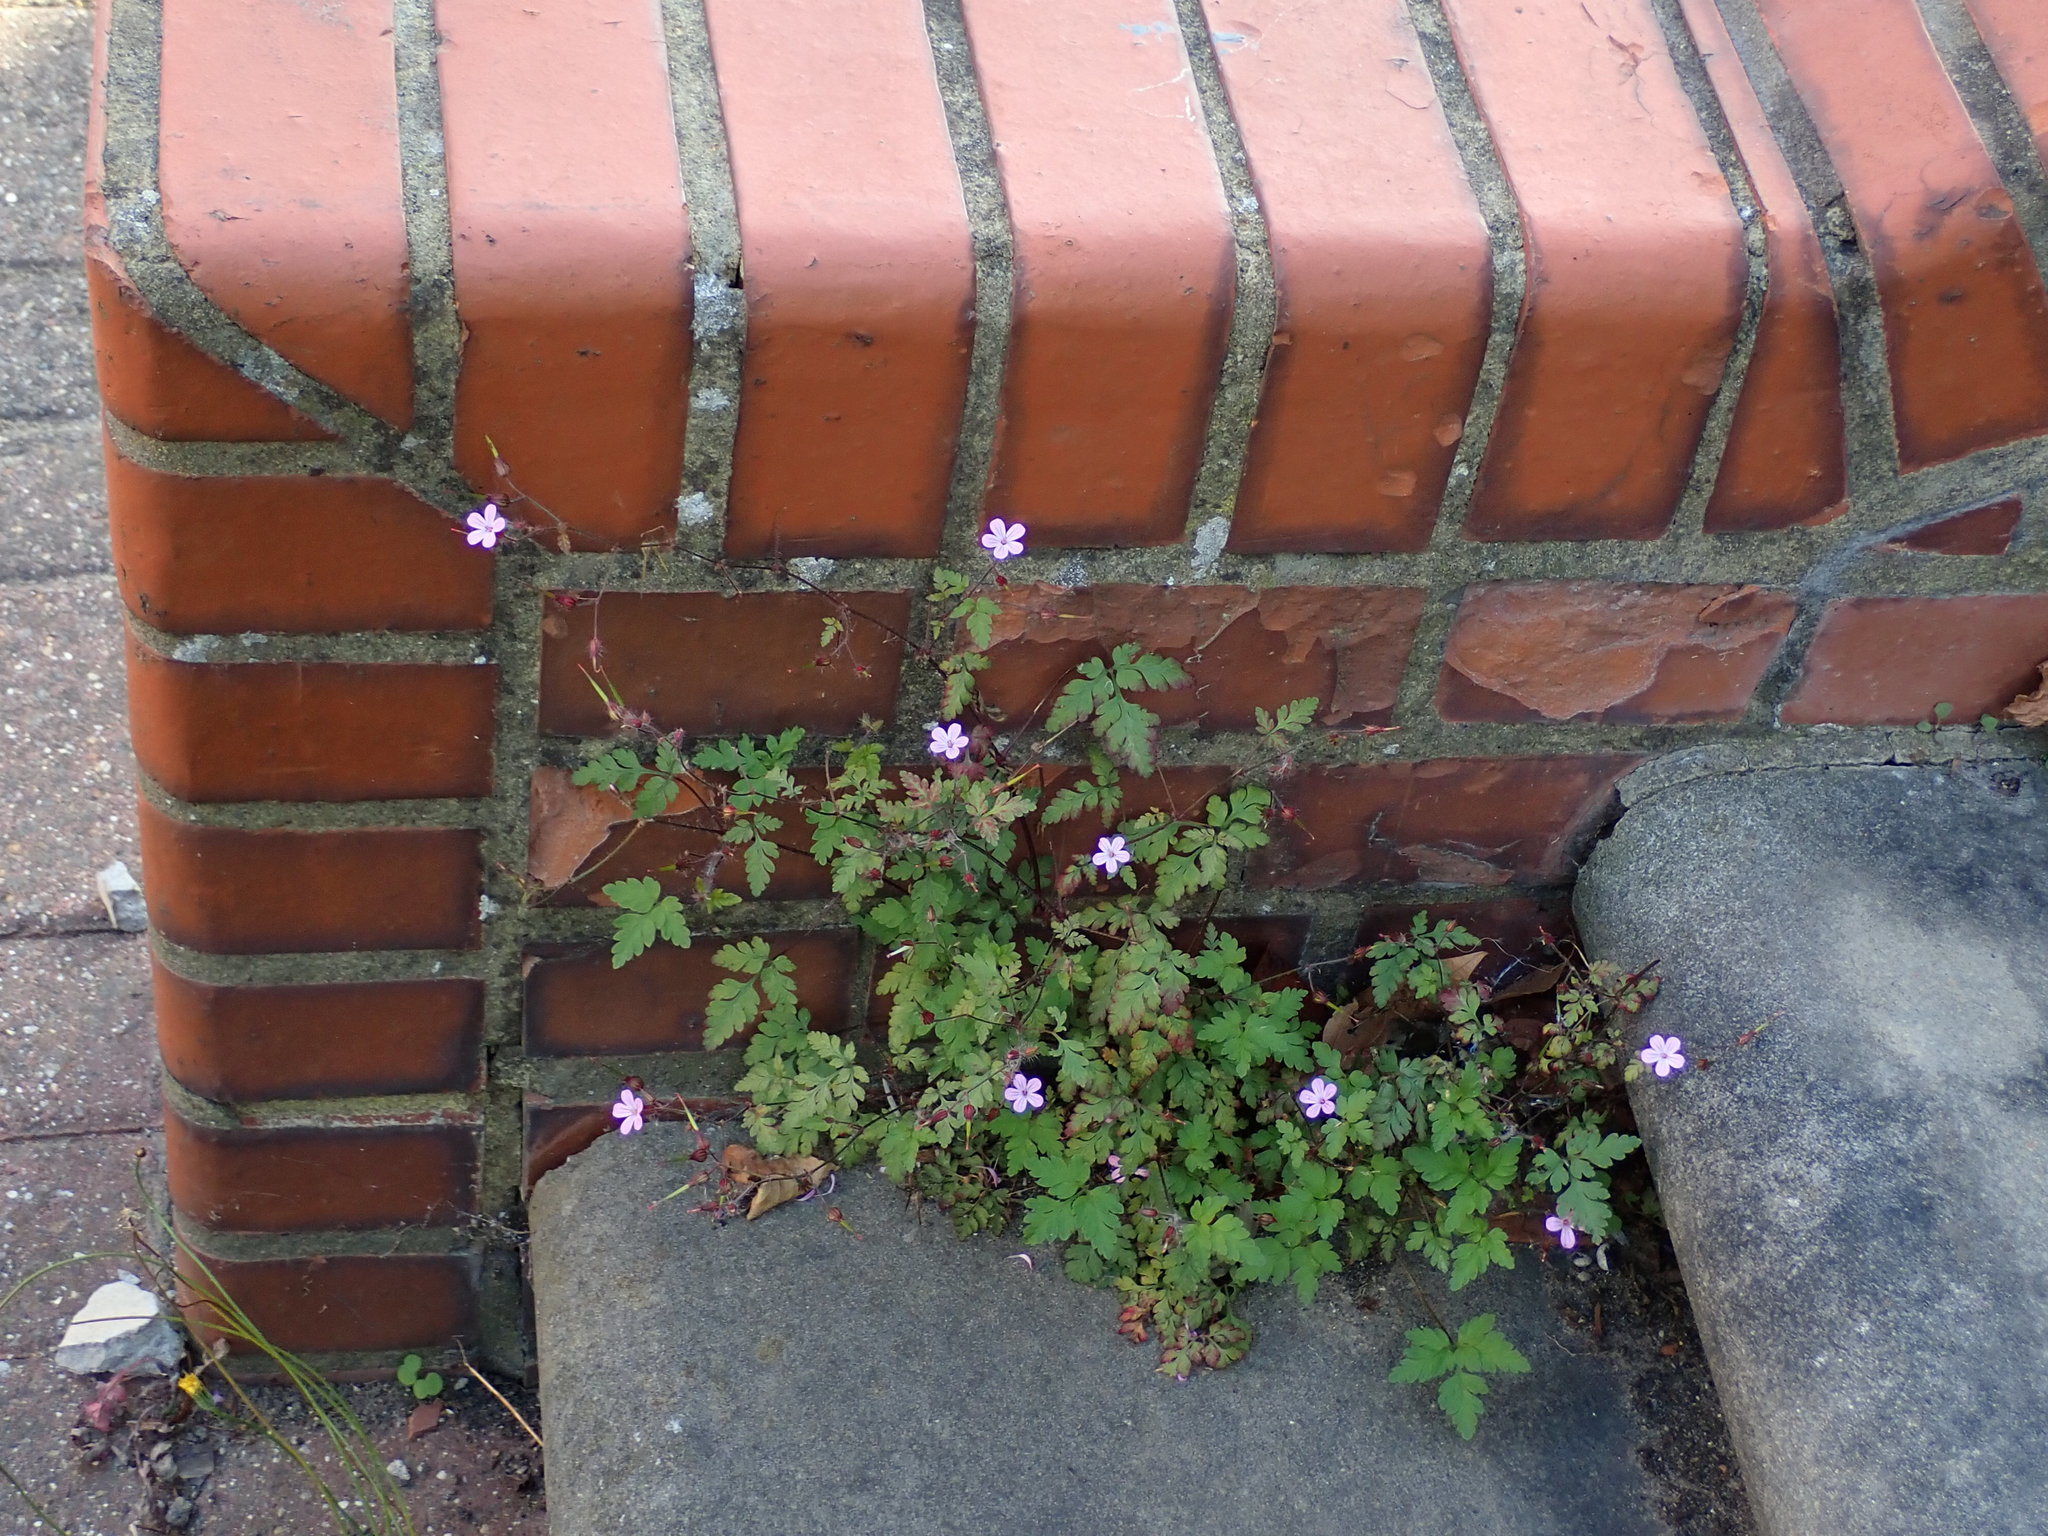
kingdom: Plantae
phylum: Tracheophyta
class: Magnoliopsida
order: Geraniales
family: Geraniaceae
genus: Geranium
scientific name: Geranium robertianum
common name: Herb-robert
